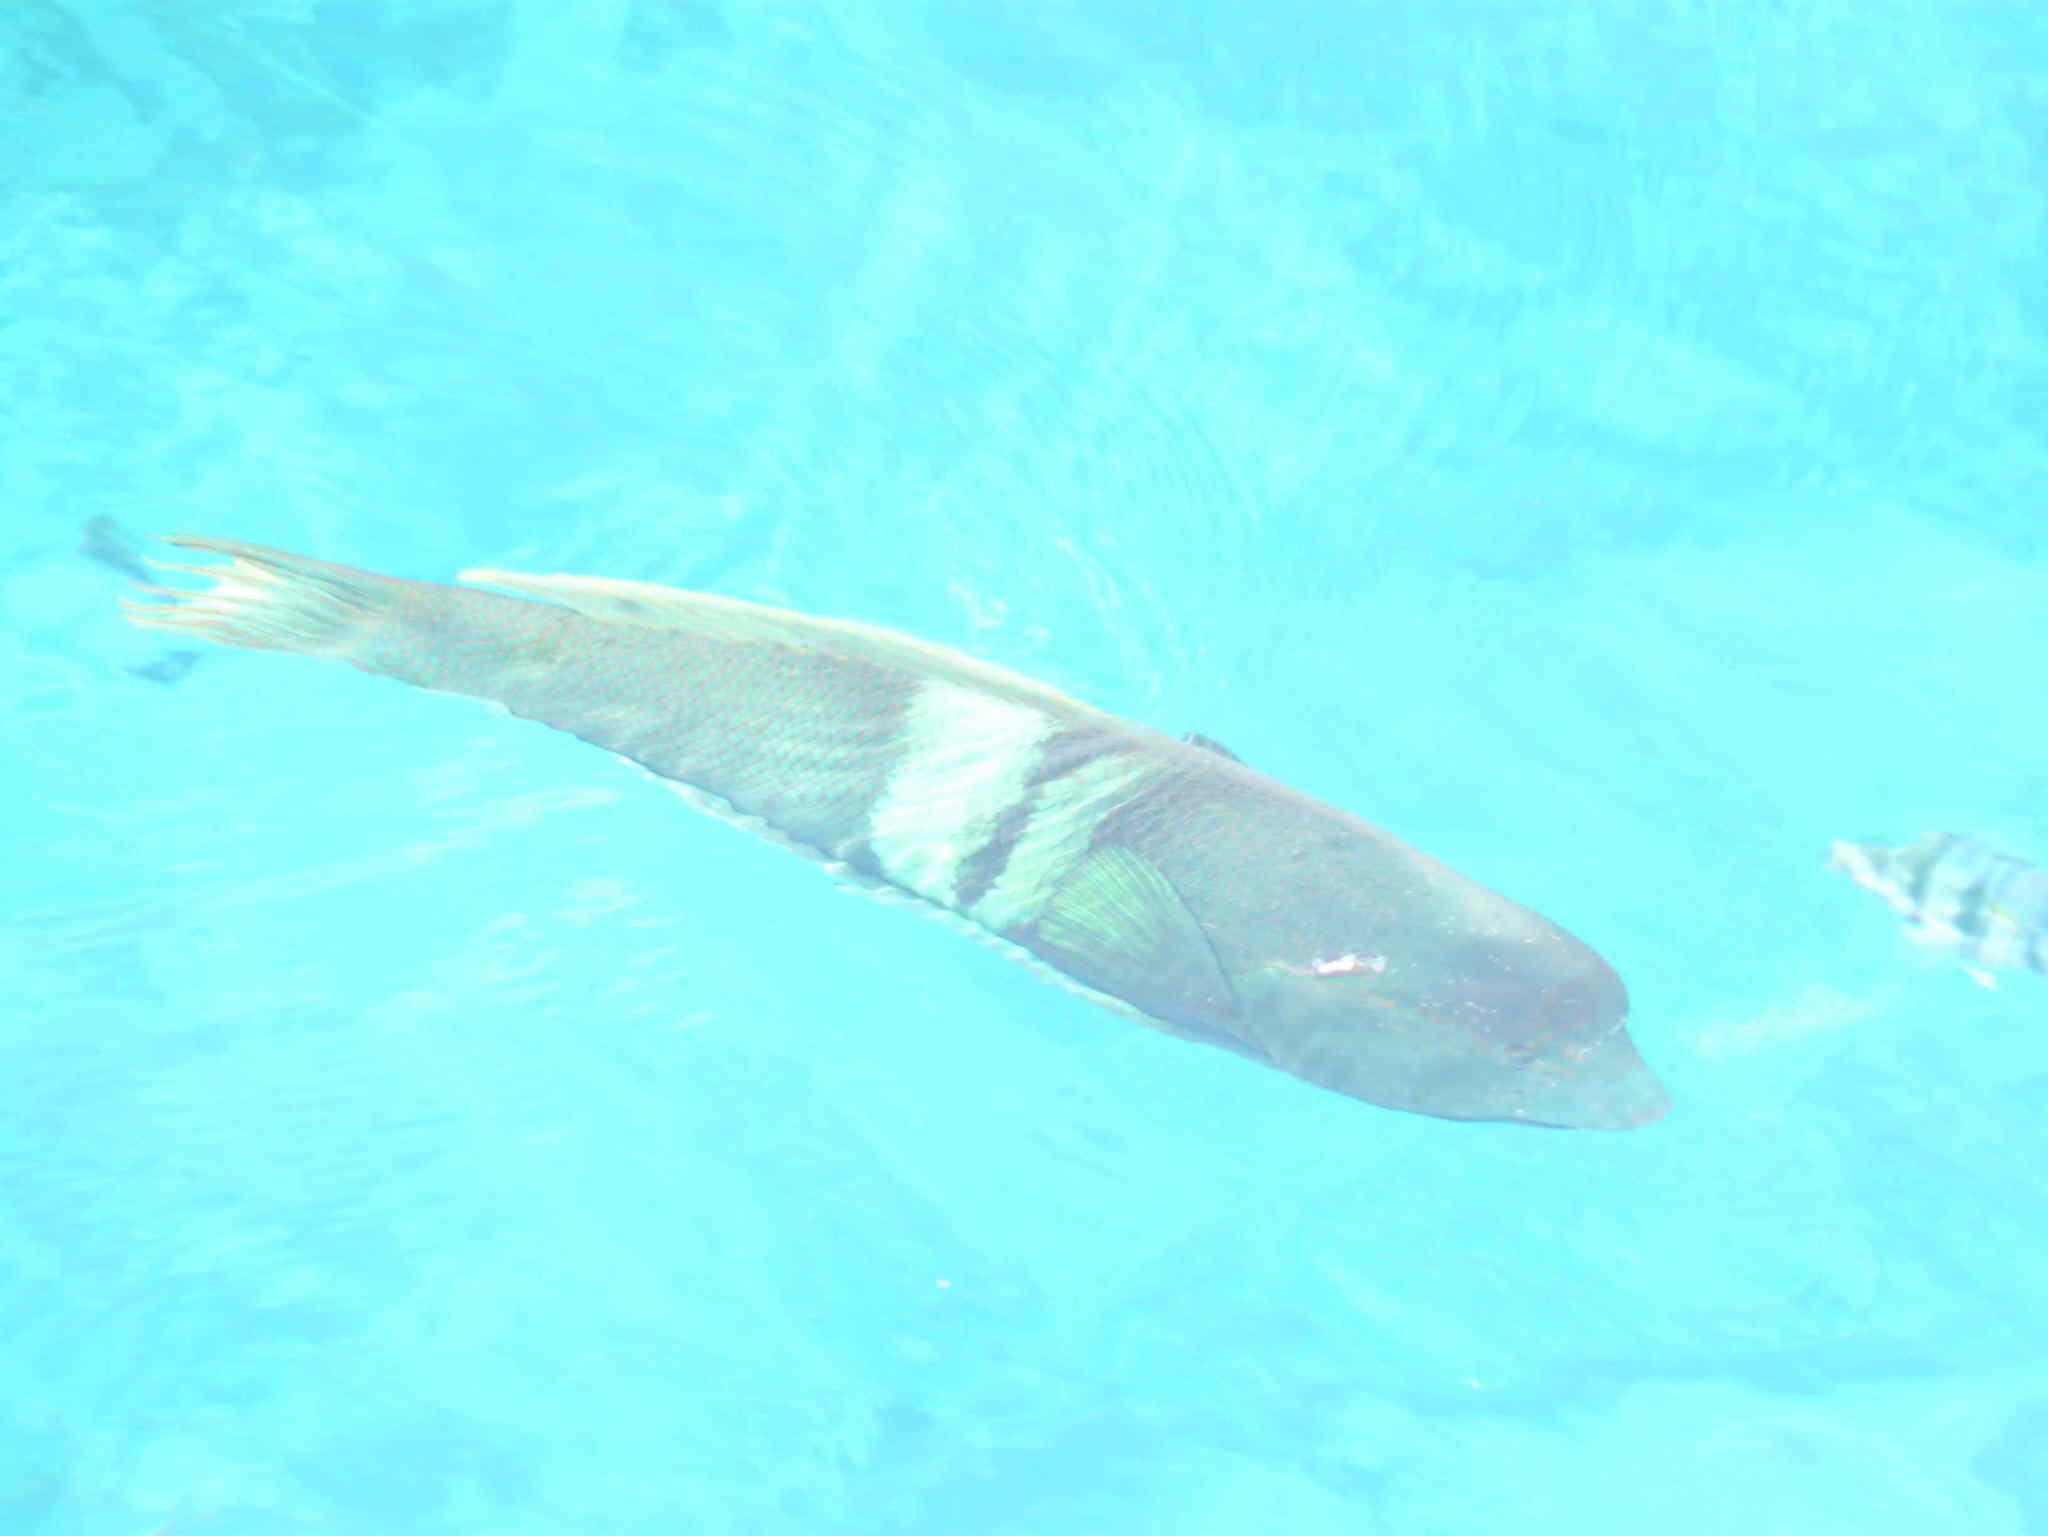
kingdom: Animalia
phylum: Chordata
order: Perciformes
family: Labridae
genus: Coris
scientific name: Coris aygula
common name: Clown coris
